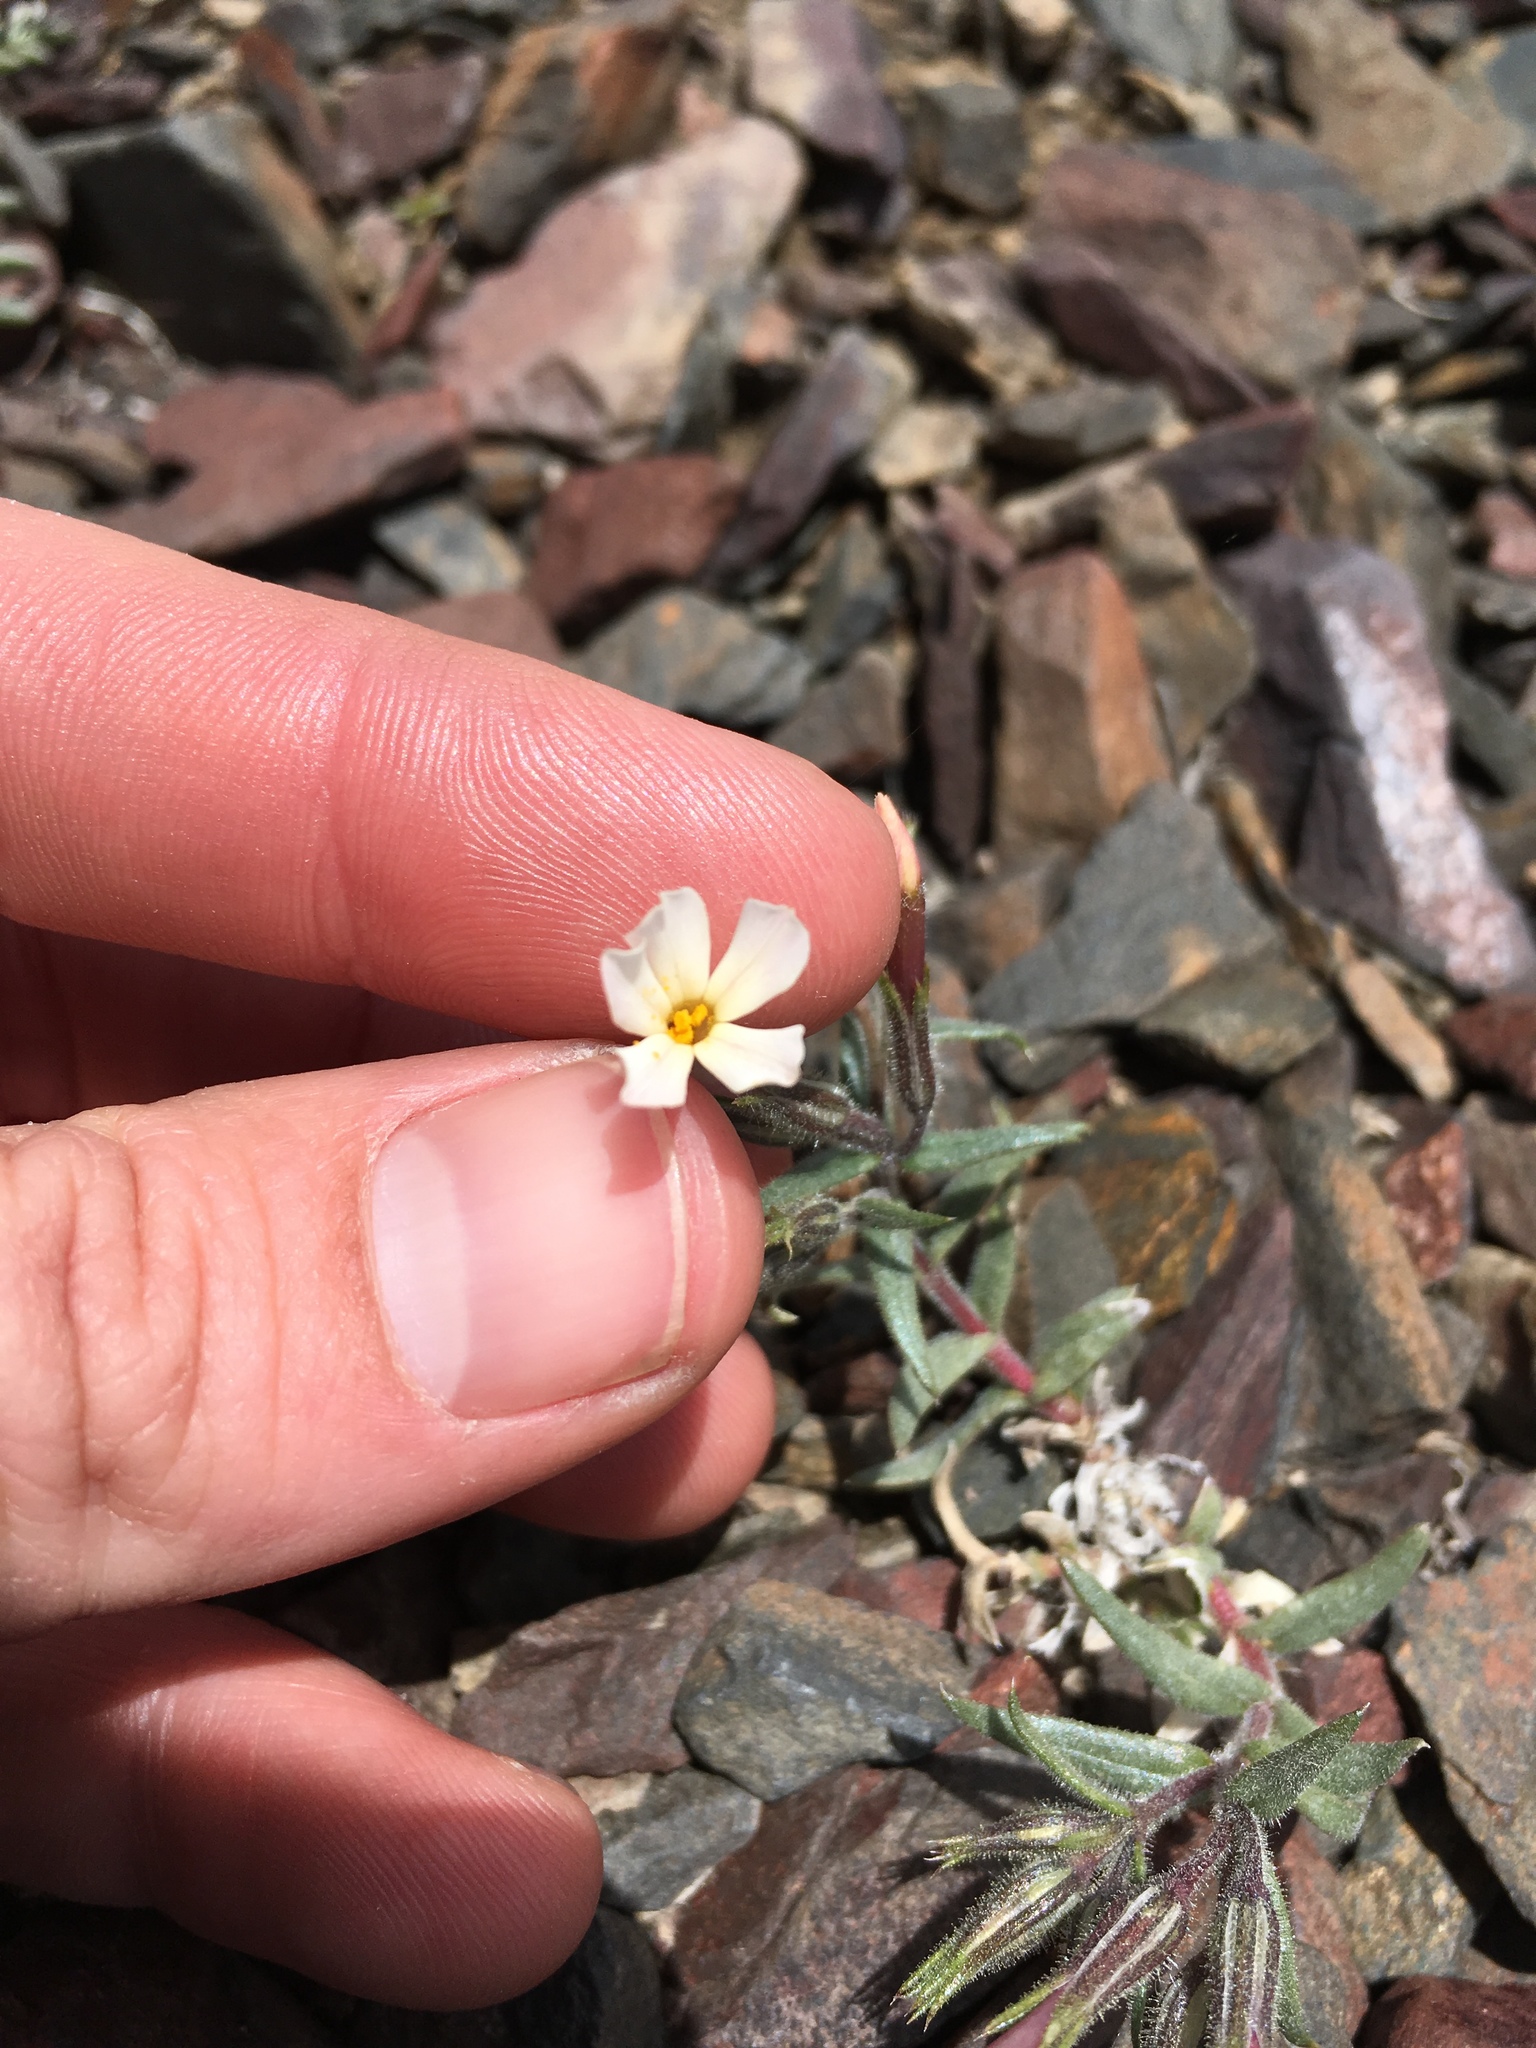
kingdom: Plantae
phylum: Tracheophyta
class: Magnoliopsida
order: Ericales
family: Polemoniaceae
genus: Phlox
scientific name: Phlox longifolia
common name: Longleaf phlox
